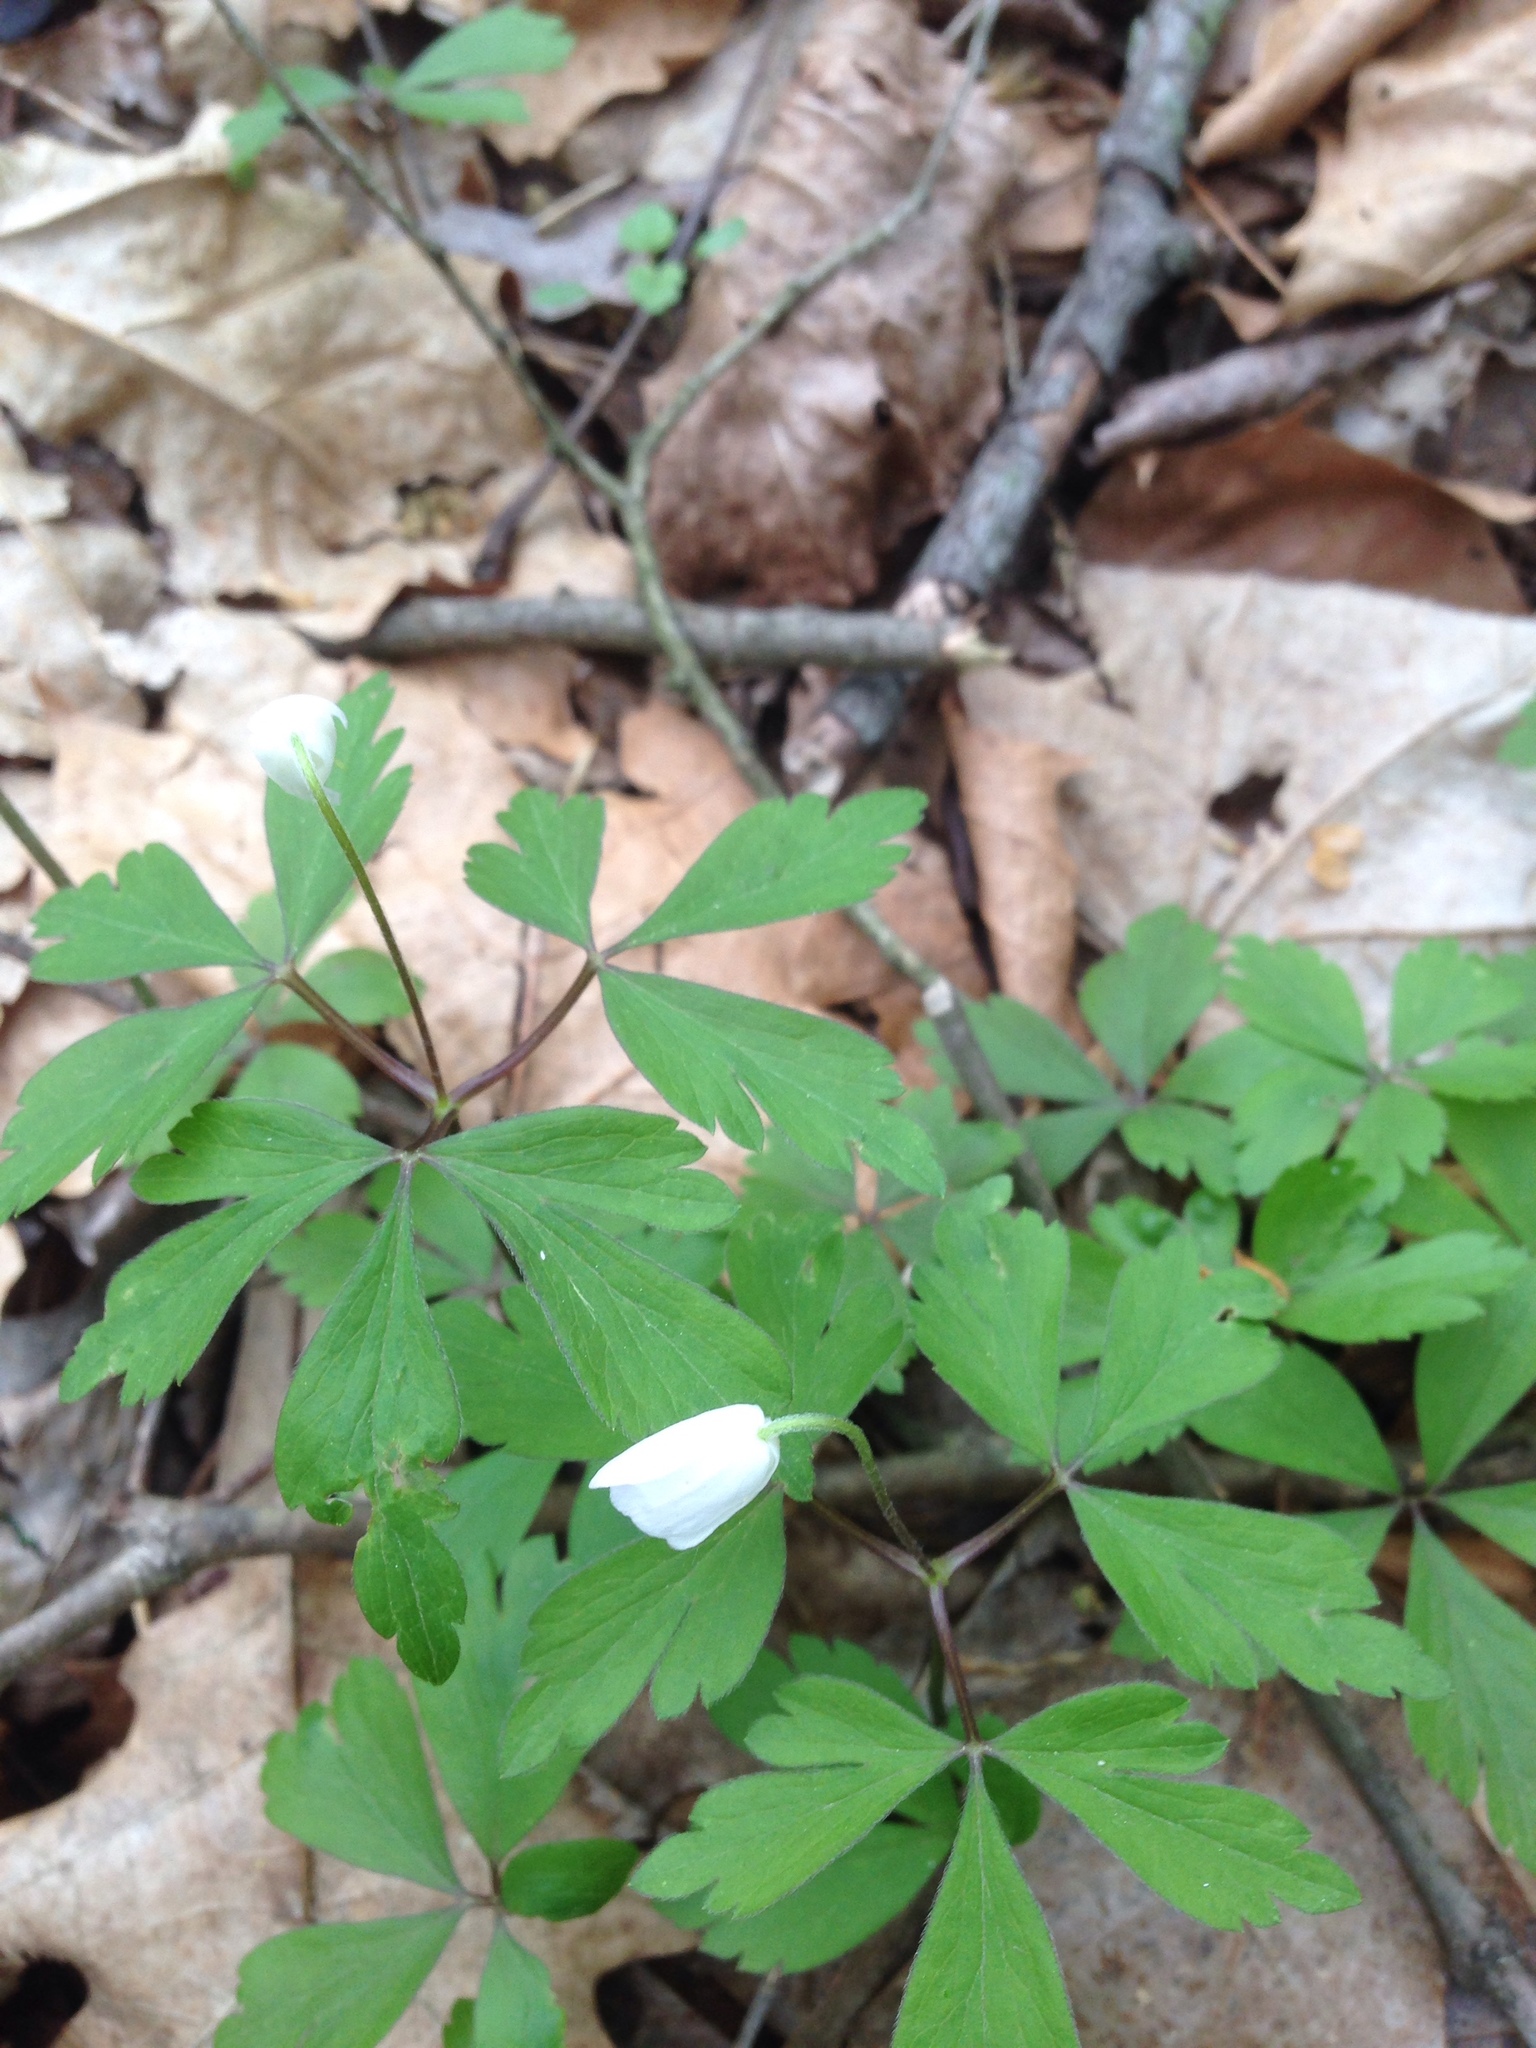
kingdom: Plantae
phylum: Tracheophyta
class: Magnoliopsida
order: Ranunculales
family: Ranunculaceae
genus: Anemone
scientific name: Anemone quinquefolia
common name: Wood anemone
